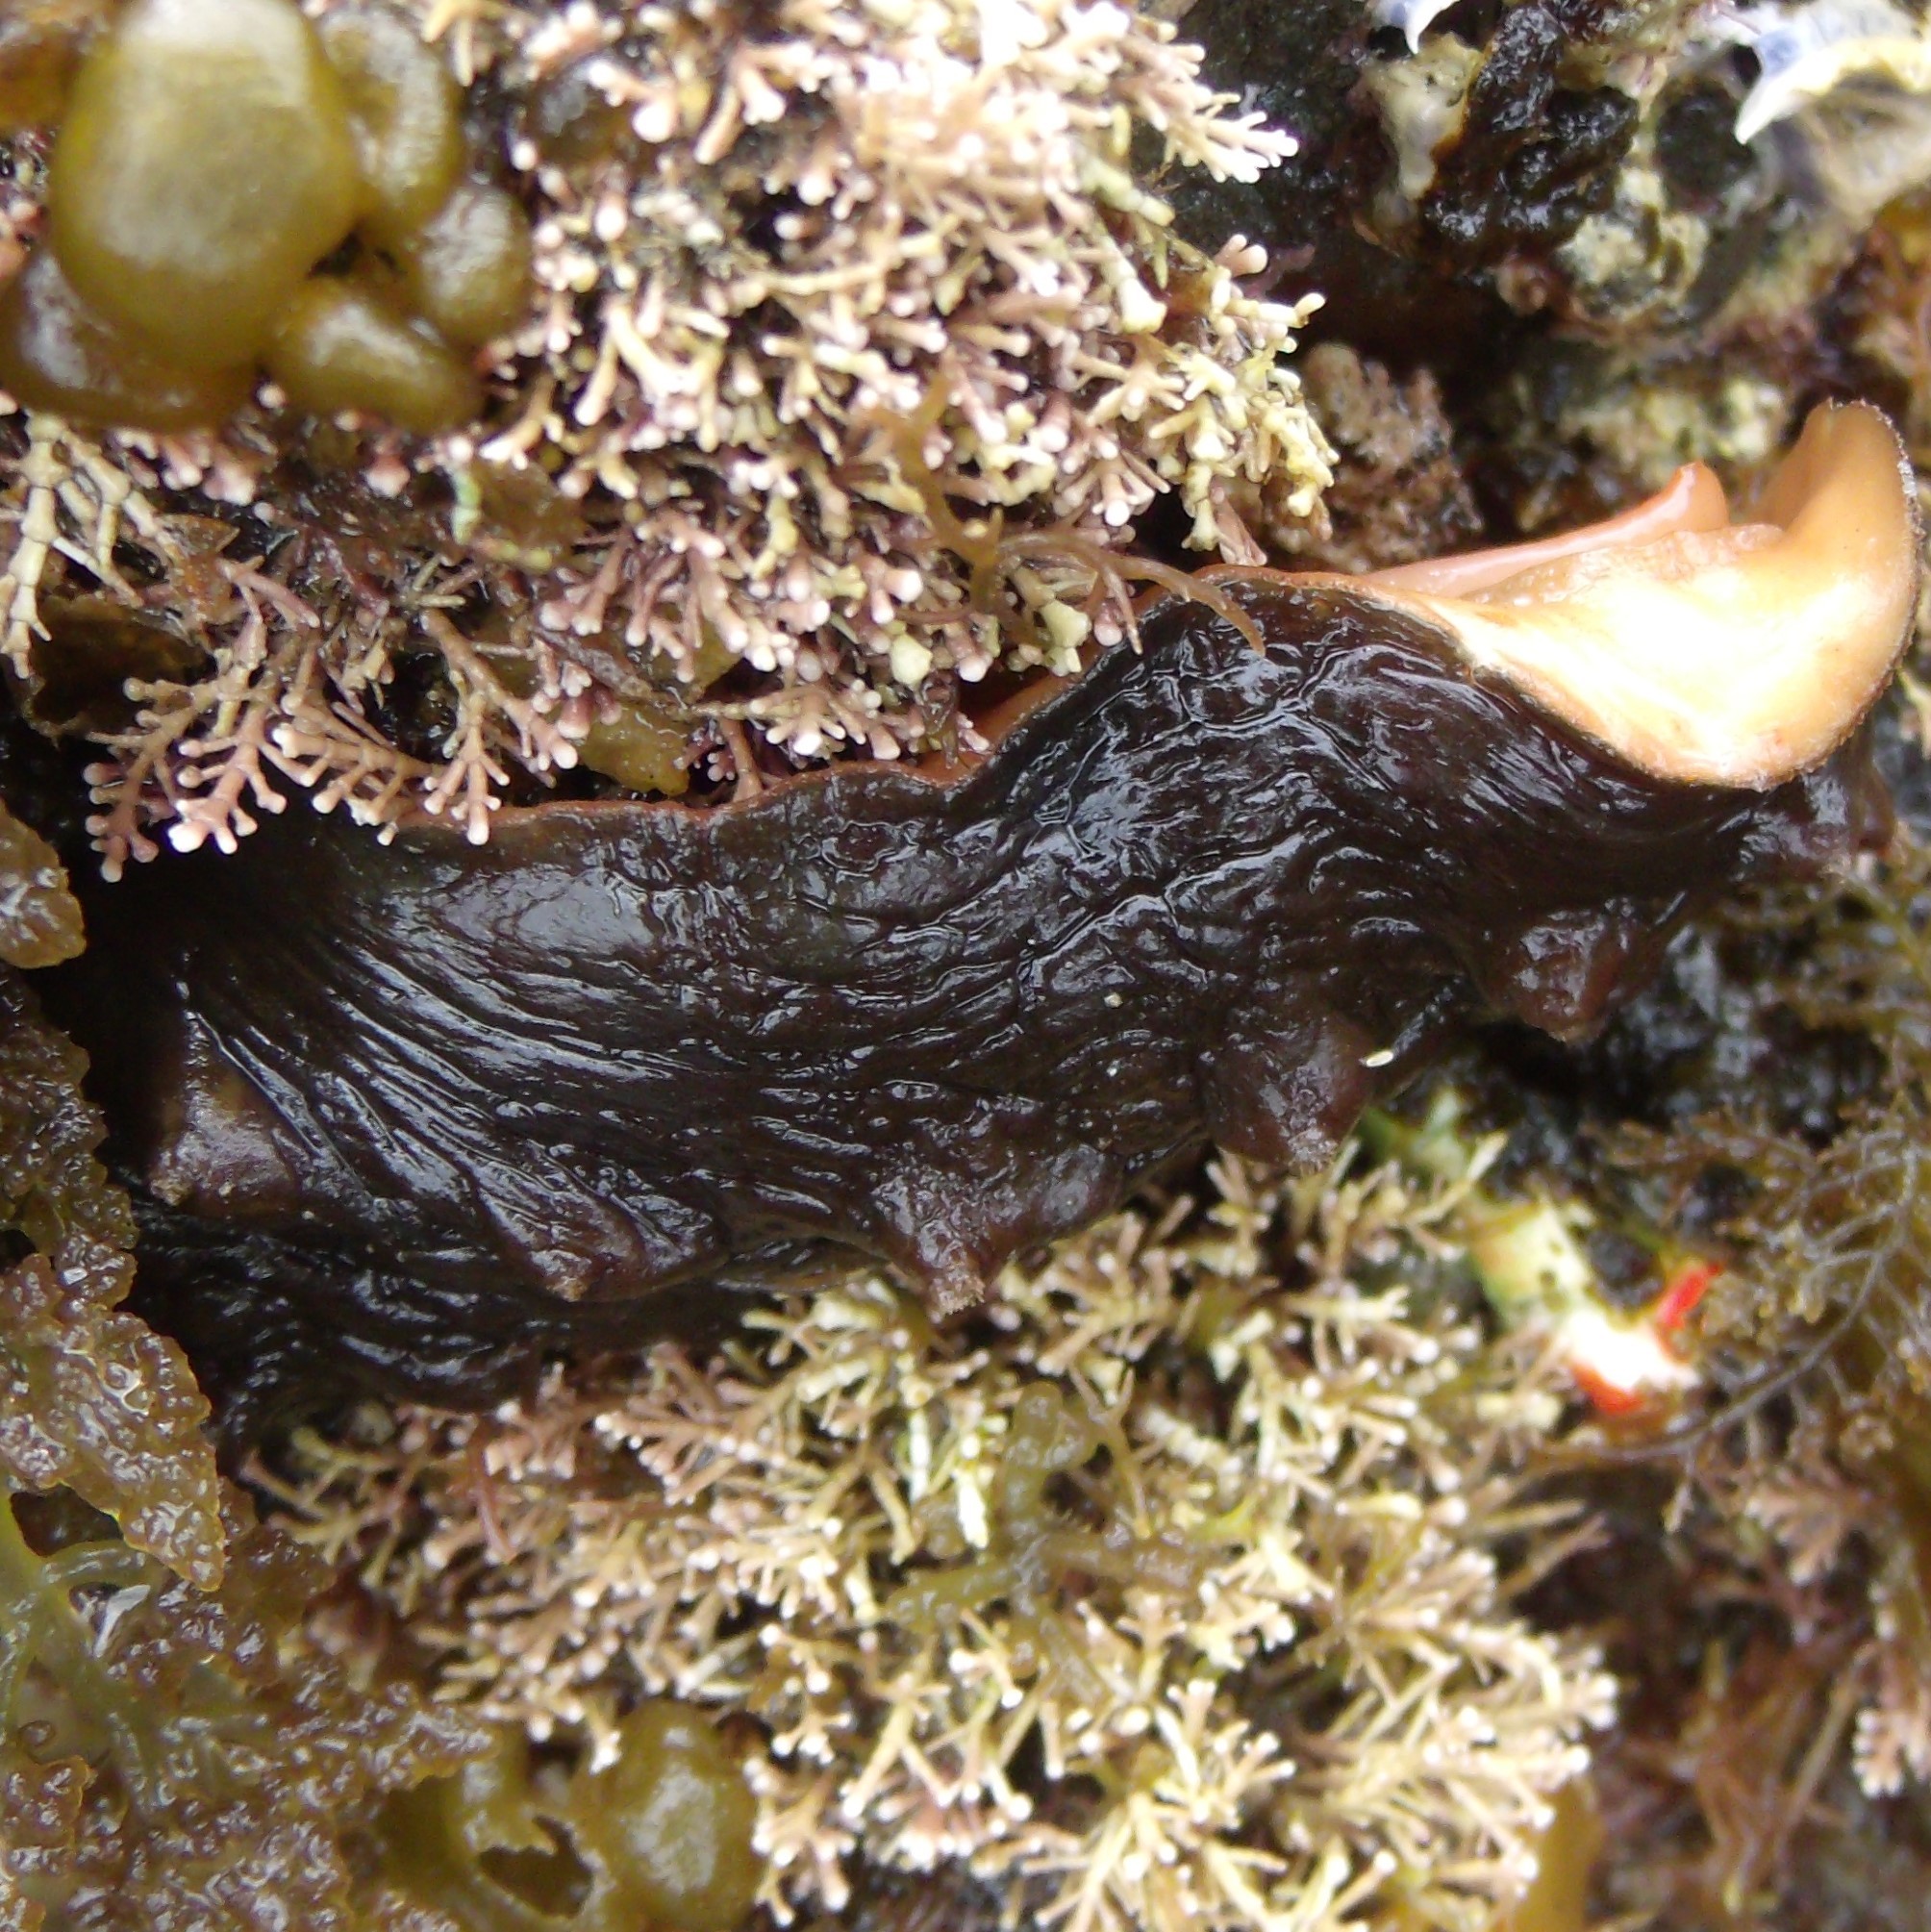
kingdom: Animalia
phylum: Mollusca
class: Polyplacophora
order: Chitonida
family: Acanthochitonidae
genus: Cryptoconchus
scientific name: Cryptoconchus porosus
